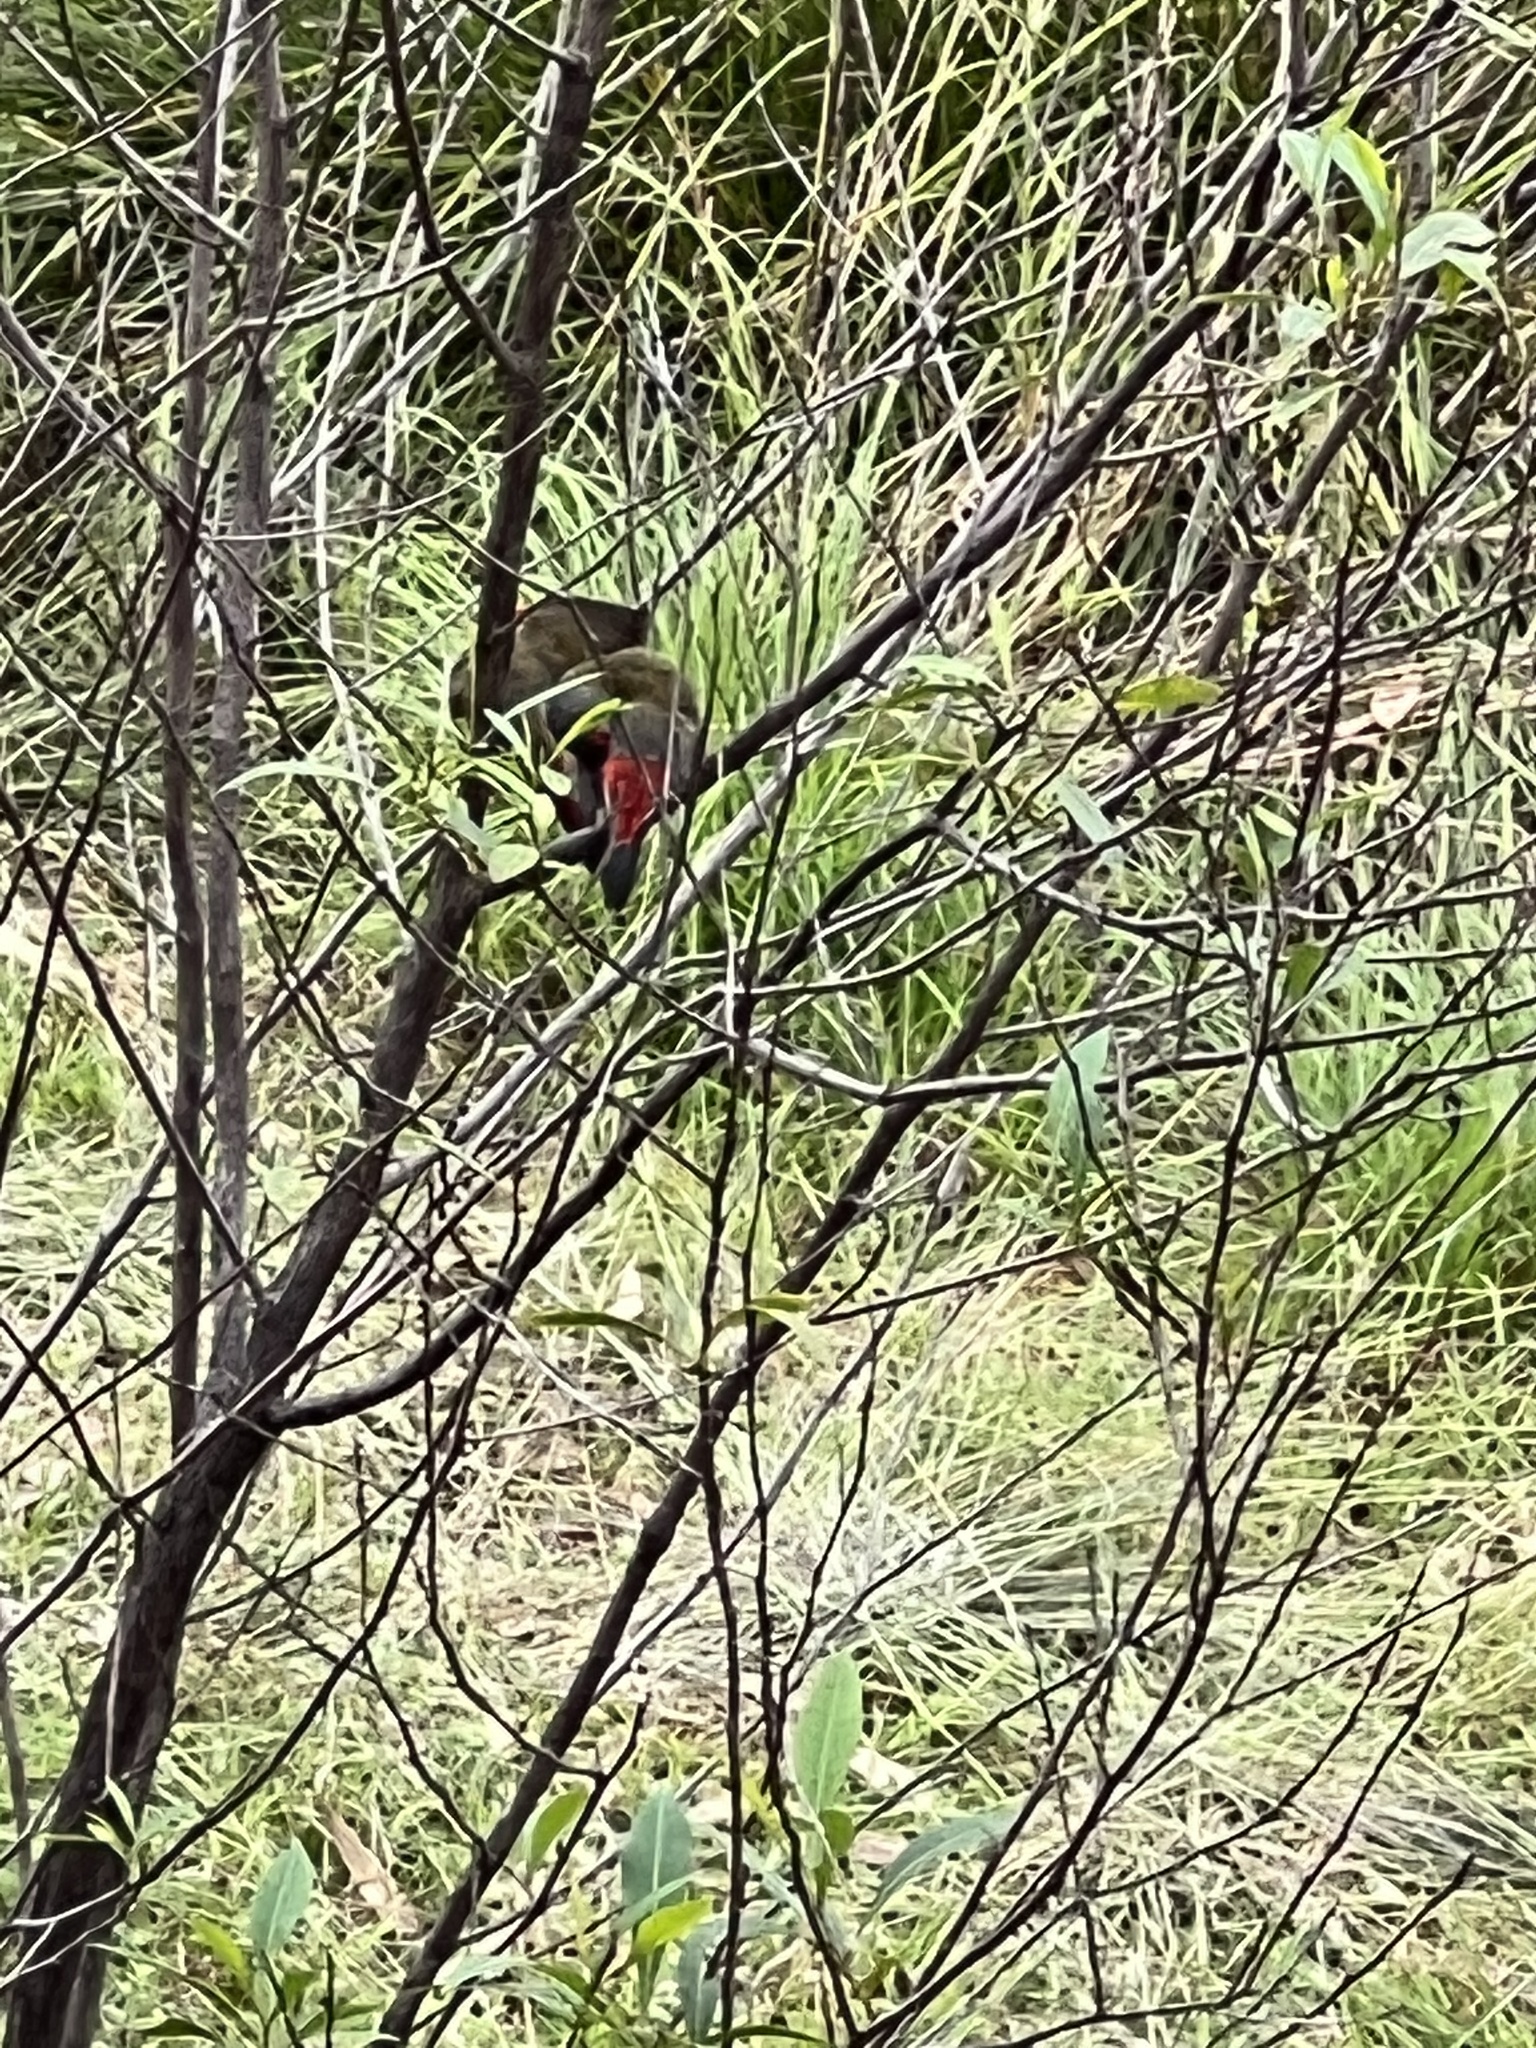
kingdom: Animalia
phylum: Chordata
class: Aves
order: Passeriformes
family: Estrildidae
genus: Neochmia
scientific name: Neochmia temporalis
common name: Red-browed finch
